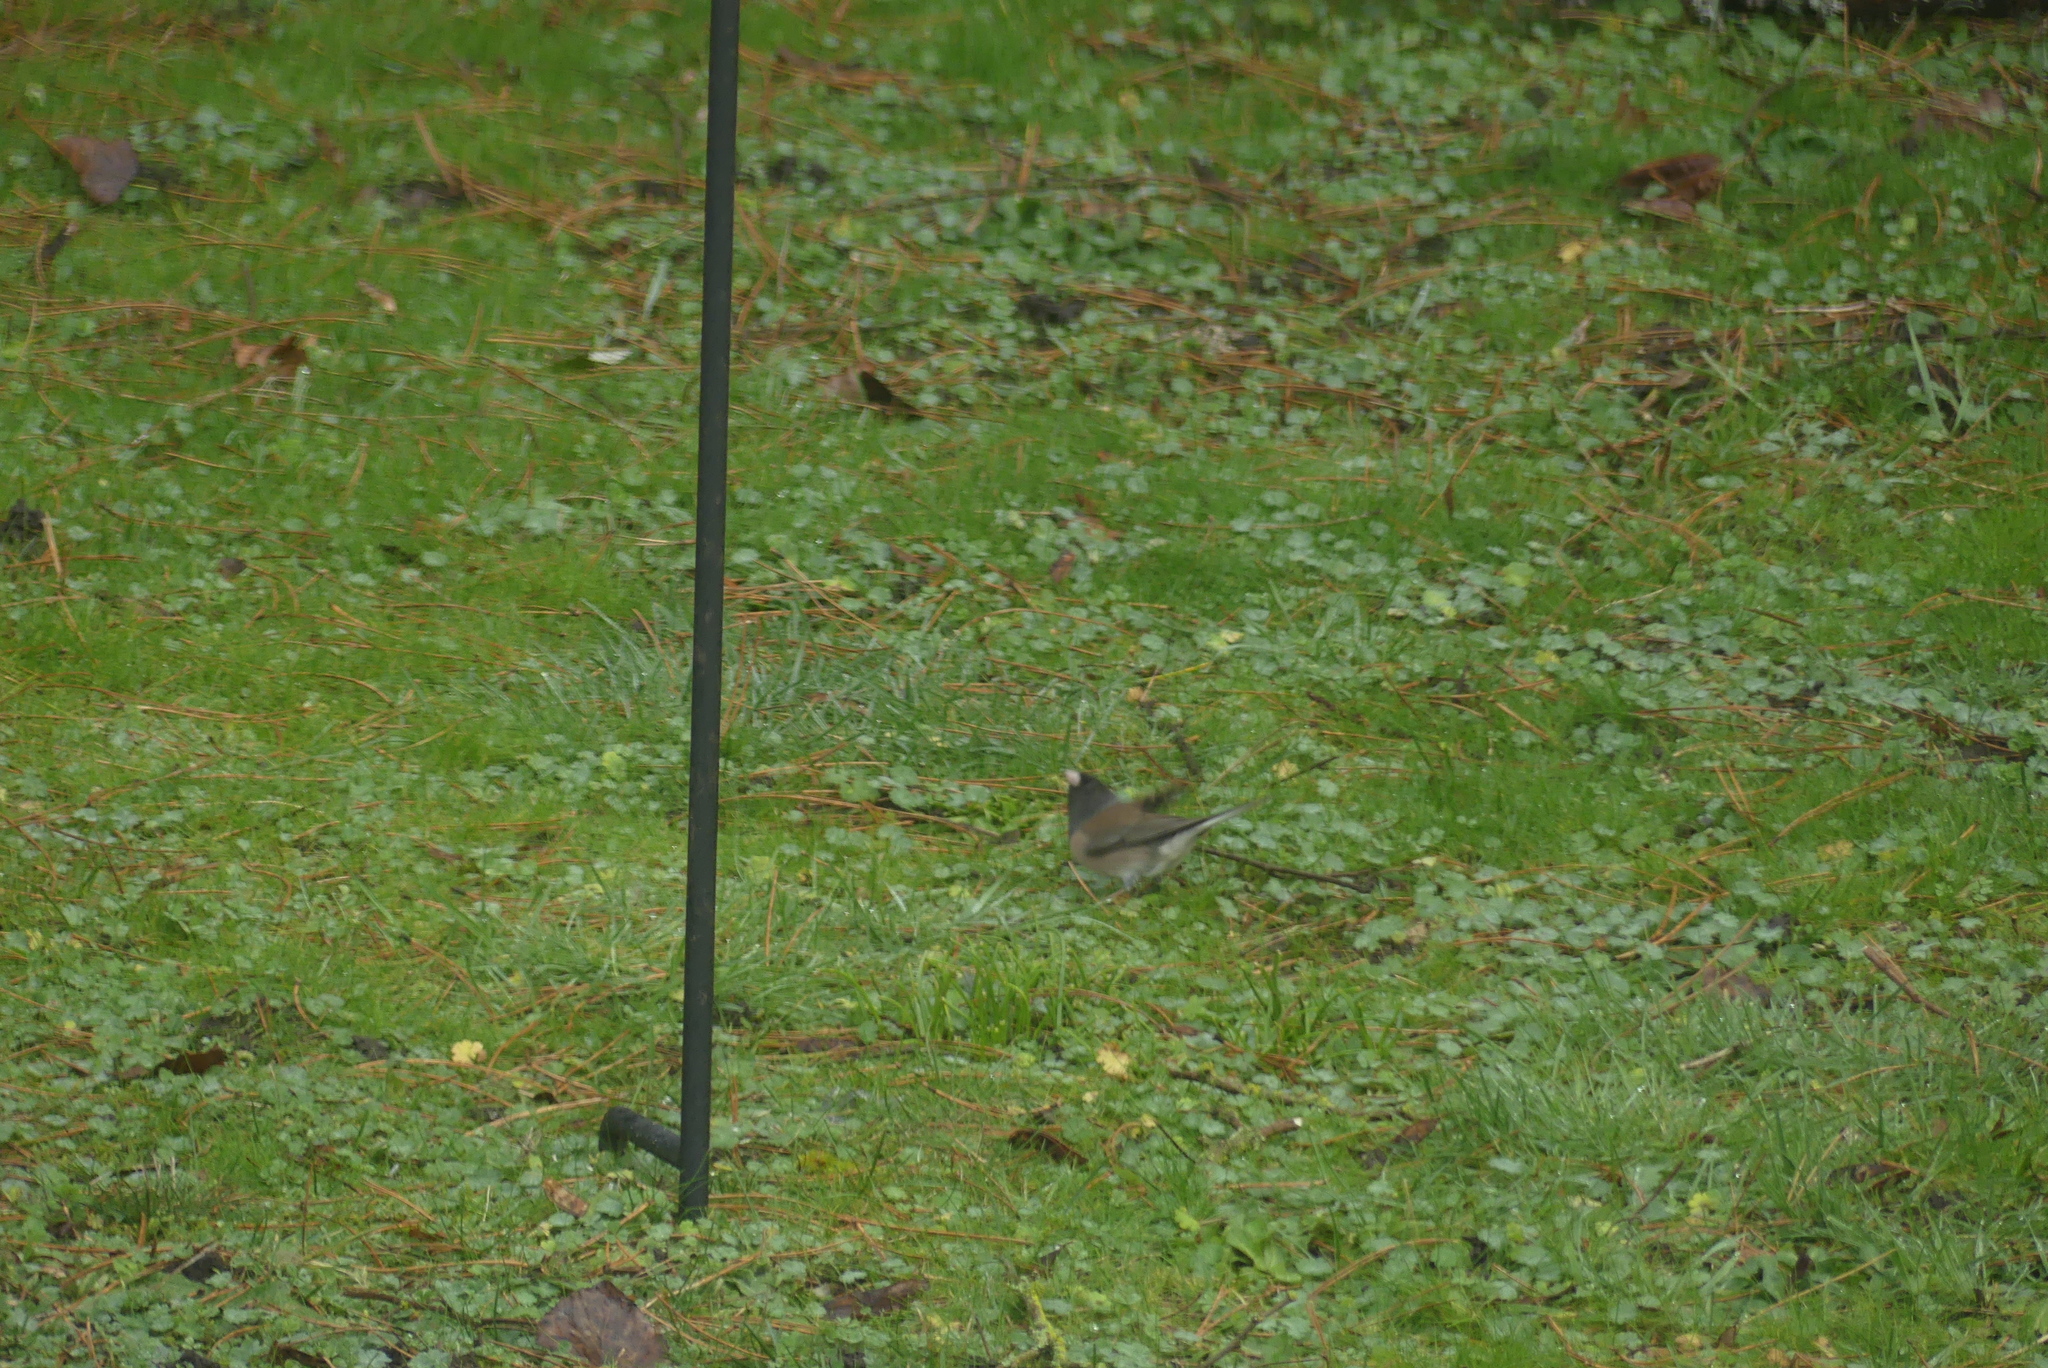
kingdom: Animalia
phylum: Chordata
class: Aves
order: Passeriformes
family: Passerellidae
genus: Junco
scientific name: Junco hyemalis
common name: Dark-eyed junco
